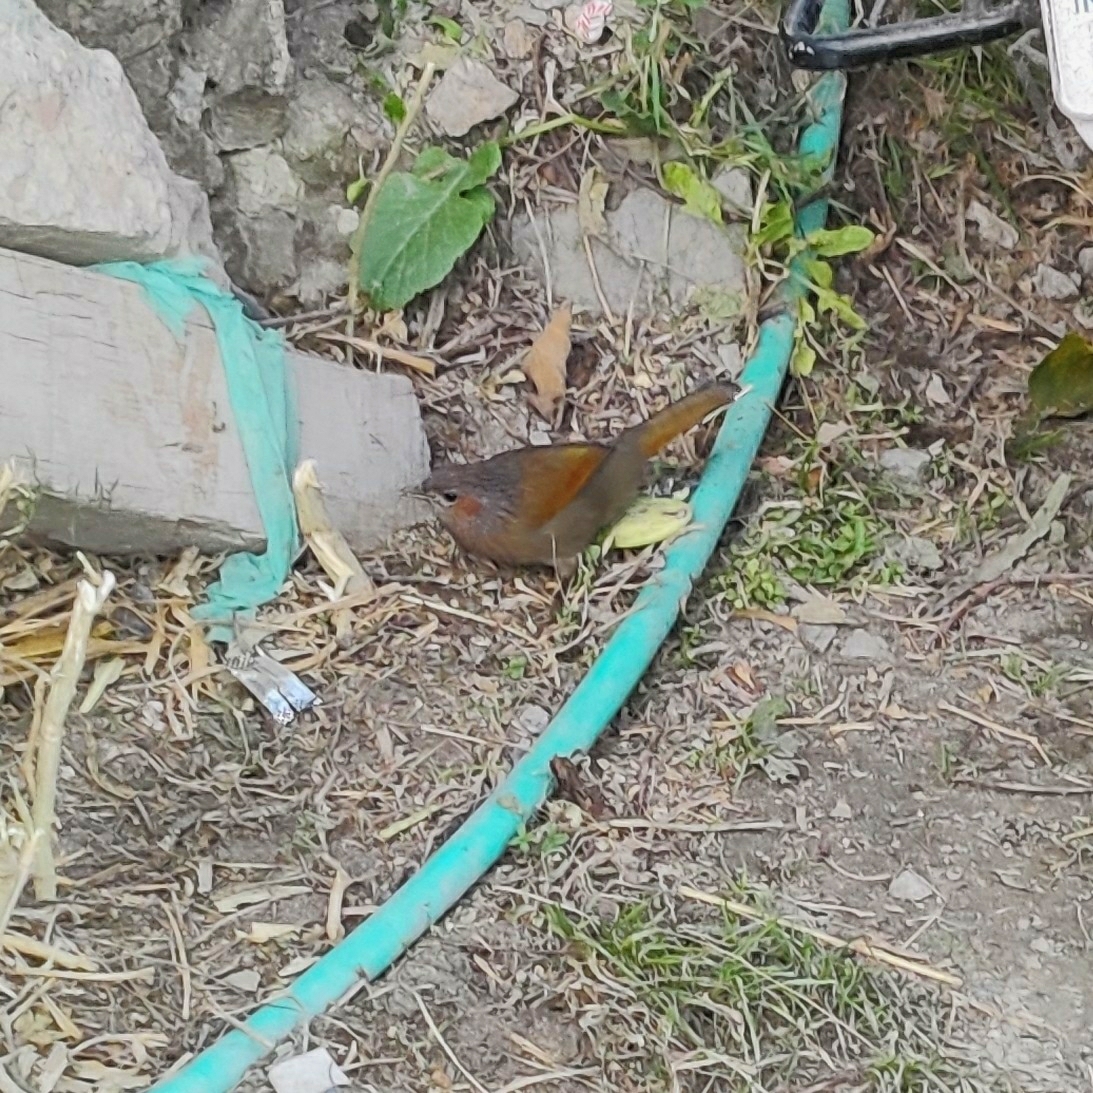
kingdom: Animalia
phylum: Chordata
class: Aves
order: Passeriformes
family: Leiothrichidae
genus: Trochalopteron
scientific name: Trochalopteron lineatum
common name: Streaked laughingthrush
